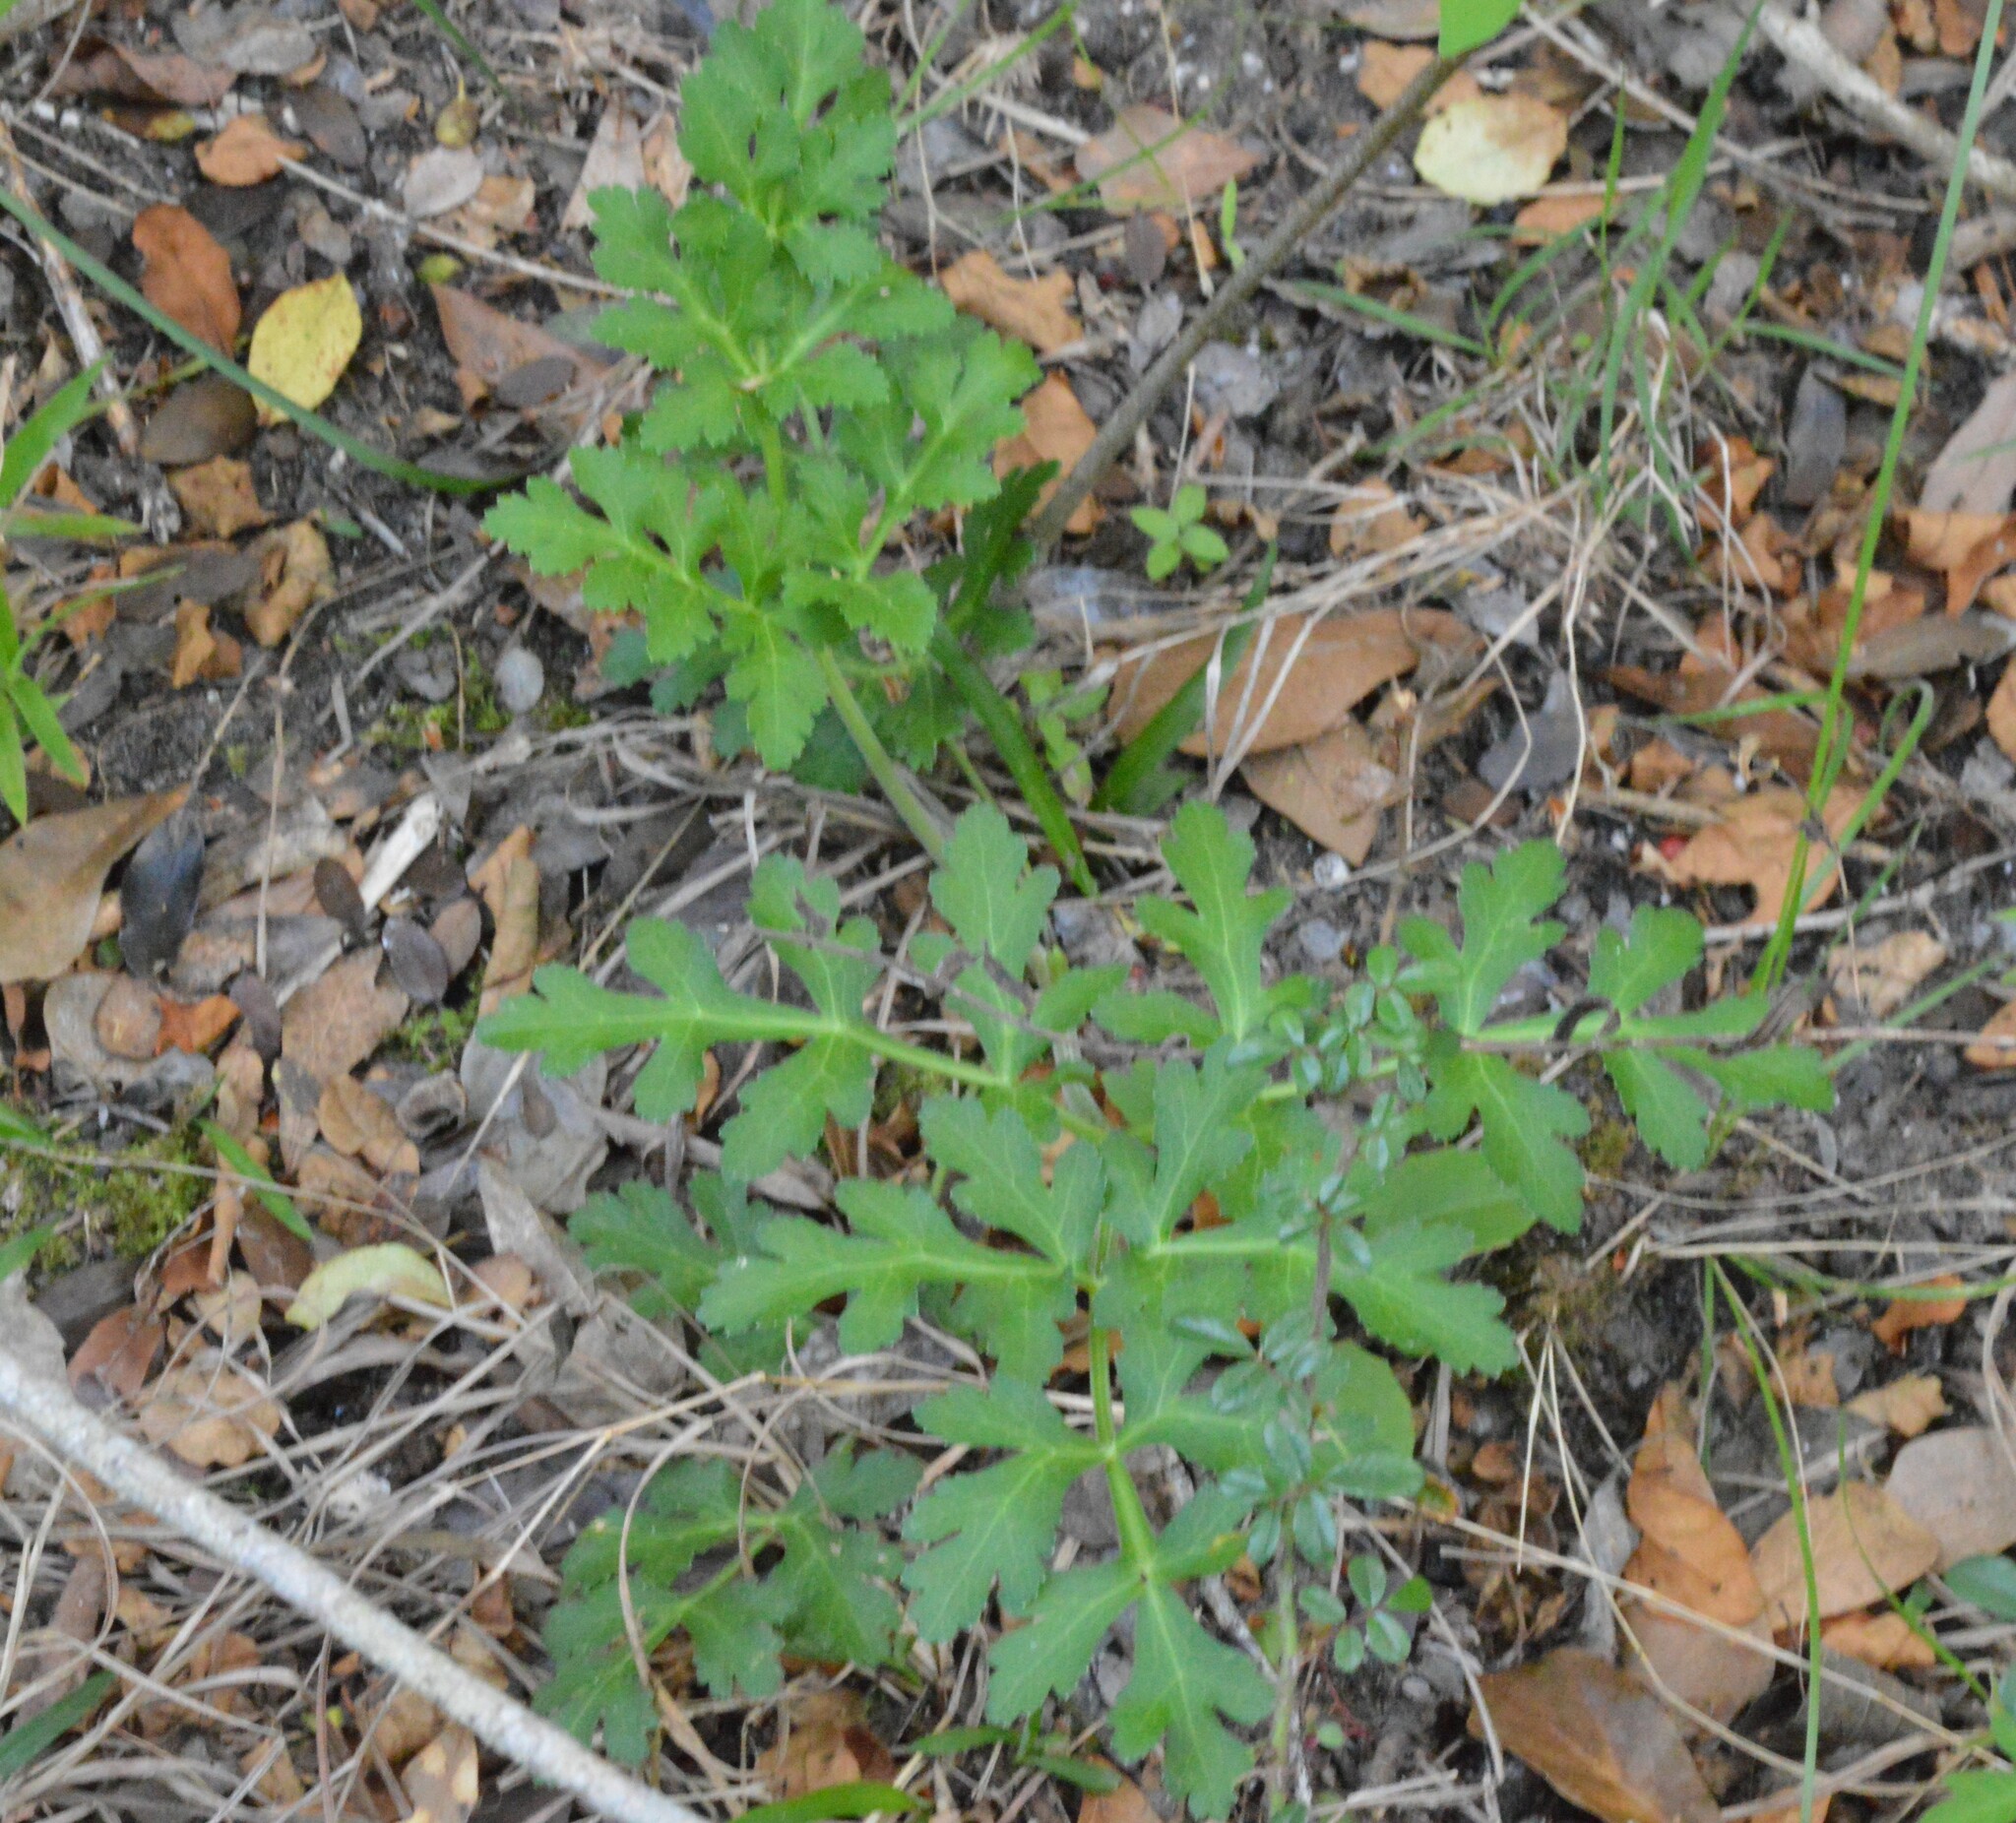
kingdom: Plantae
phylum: Tracheophyta
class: Magnoliopsida
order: Apiales
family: Apiaceae
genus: Polytaenia
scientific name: Polytaenia texana
